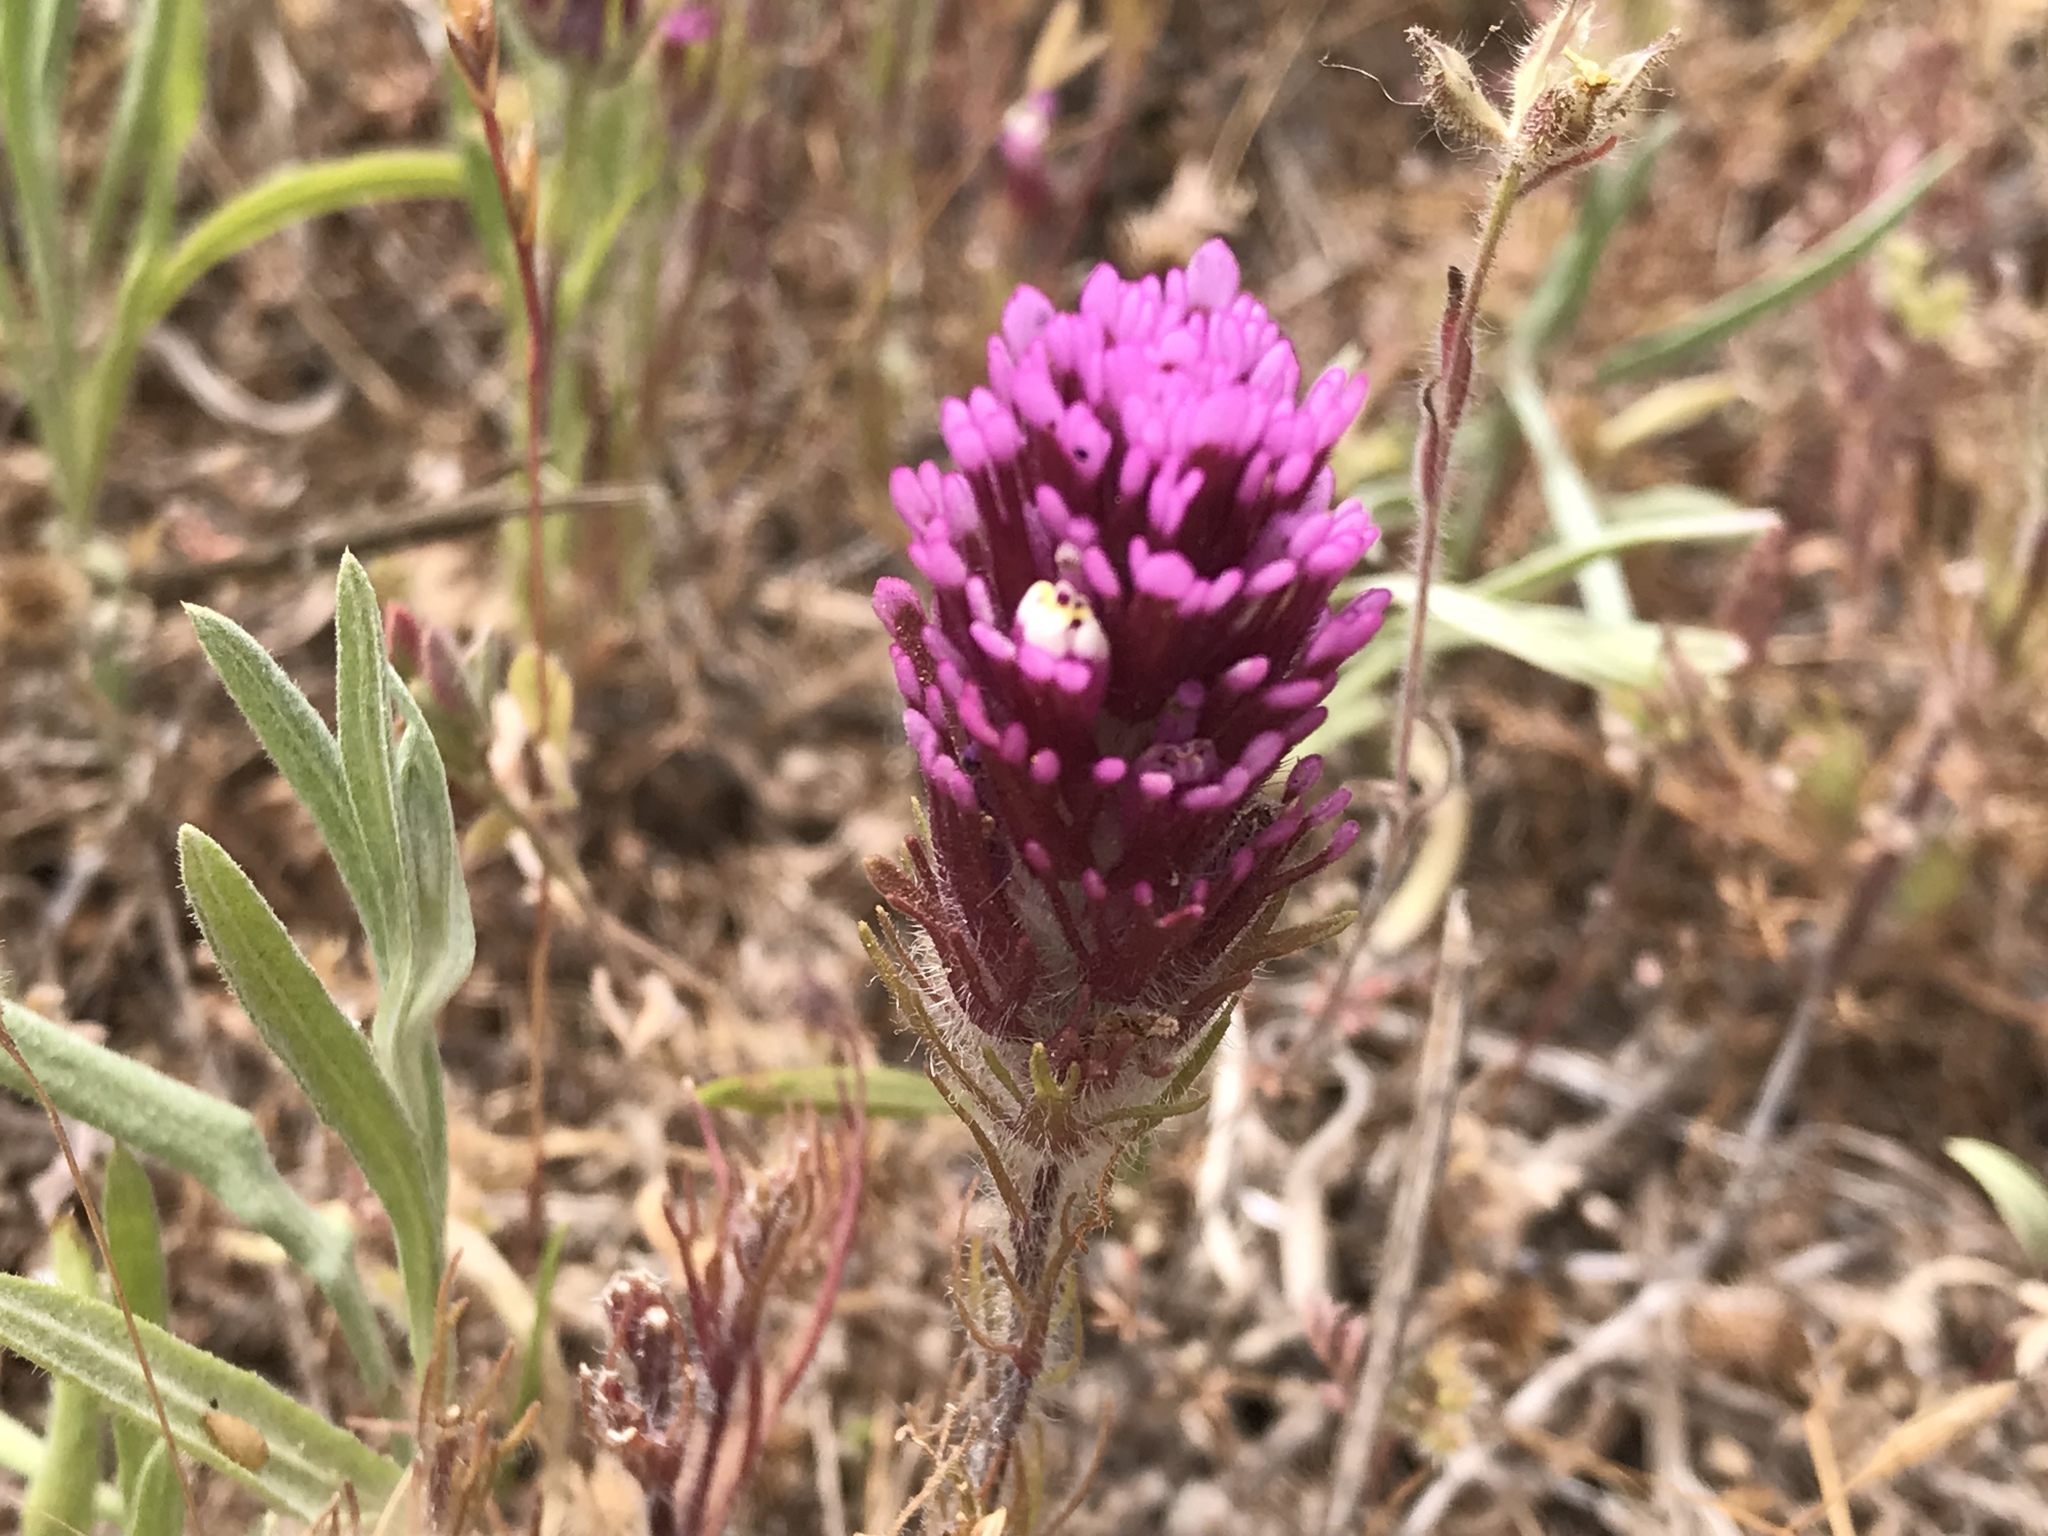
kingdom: Plantae
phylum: Tracheophyta
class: Magnoliopsida
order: Lamiales
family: Orobanchaceae
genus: Castilleja
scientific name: Castilleja exserta
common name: Purple owl-clover
